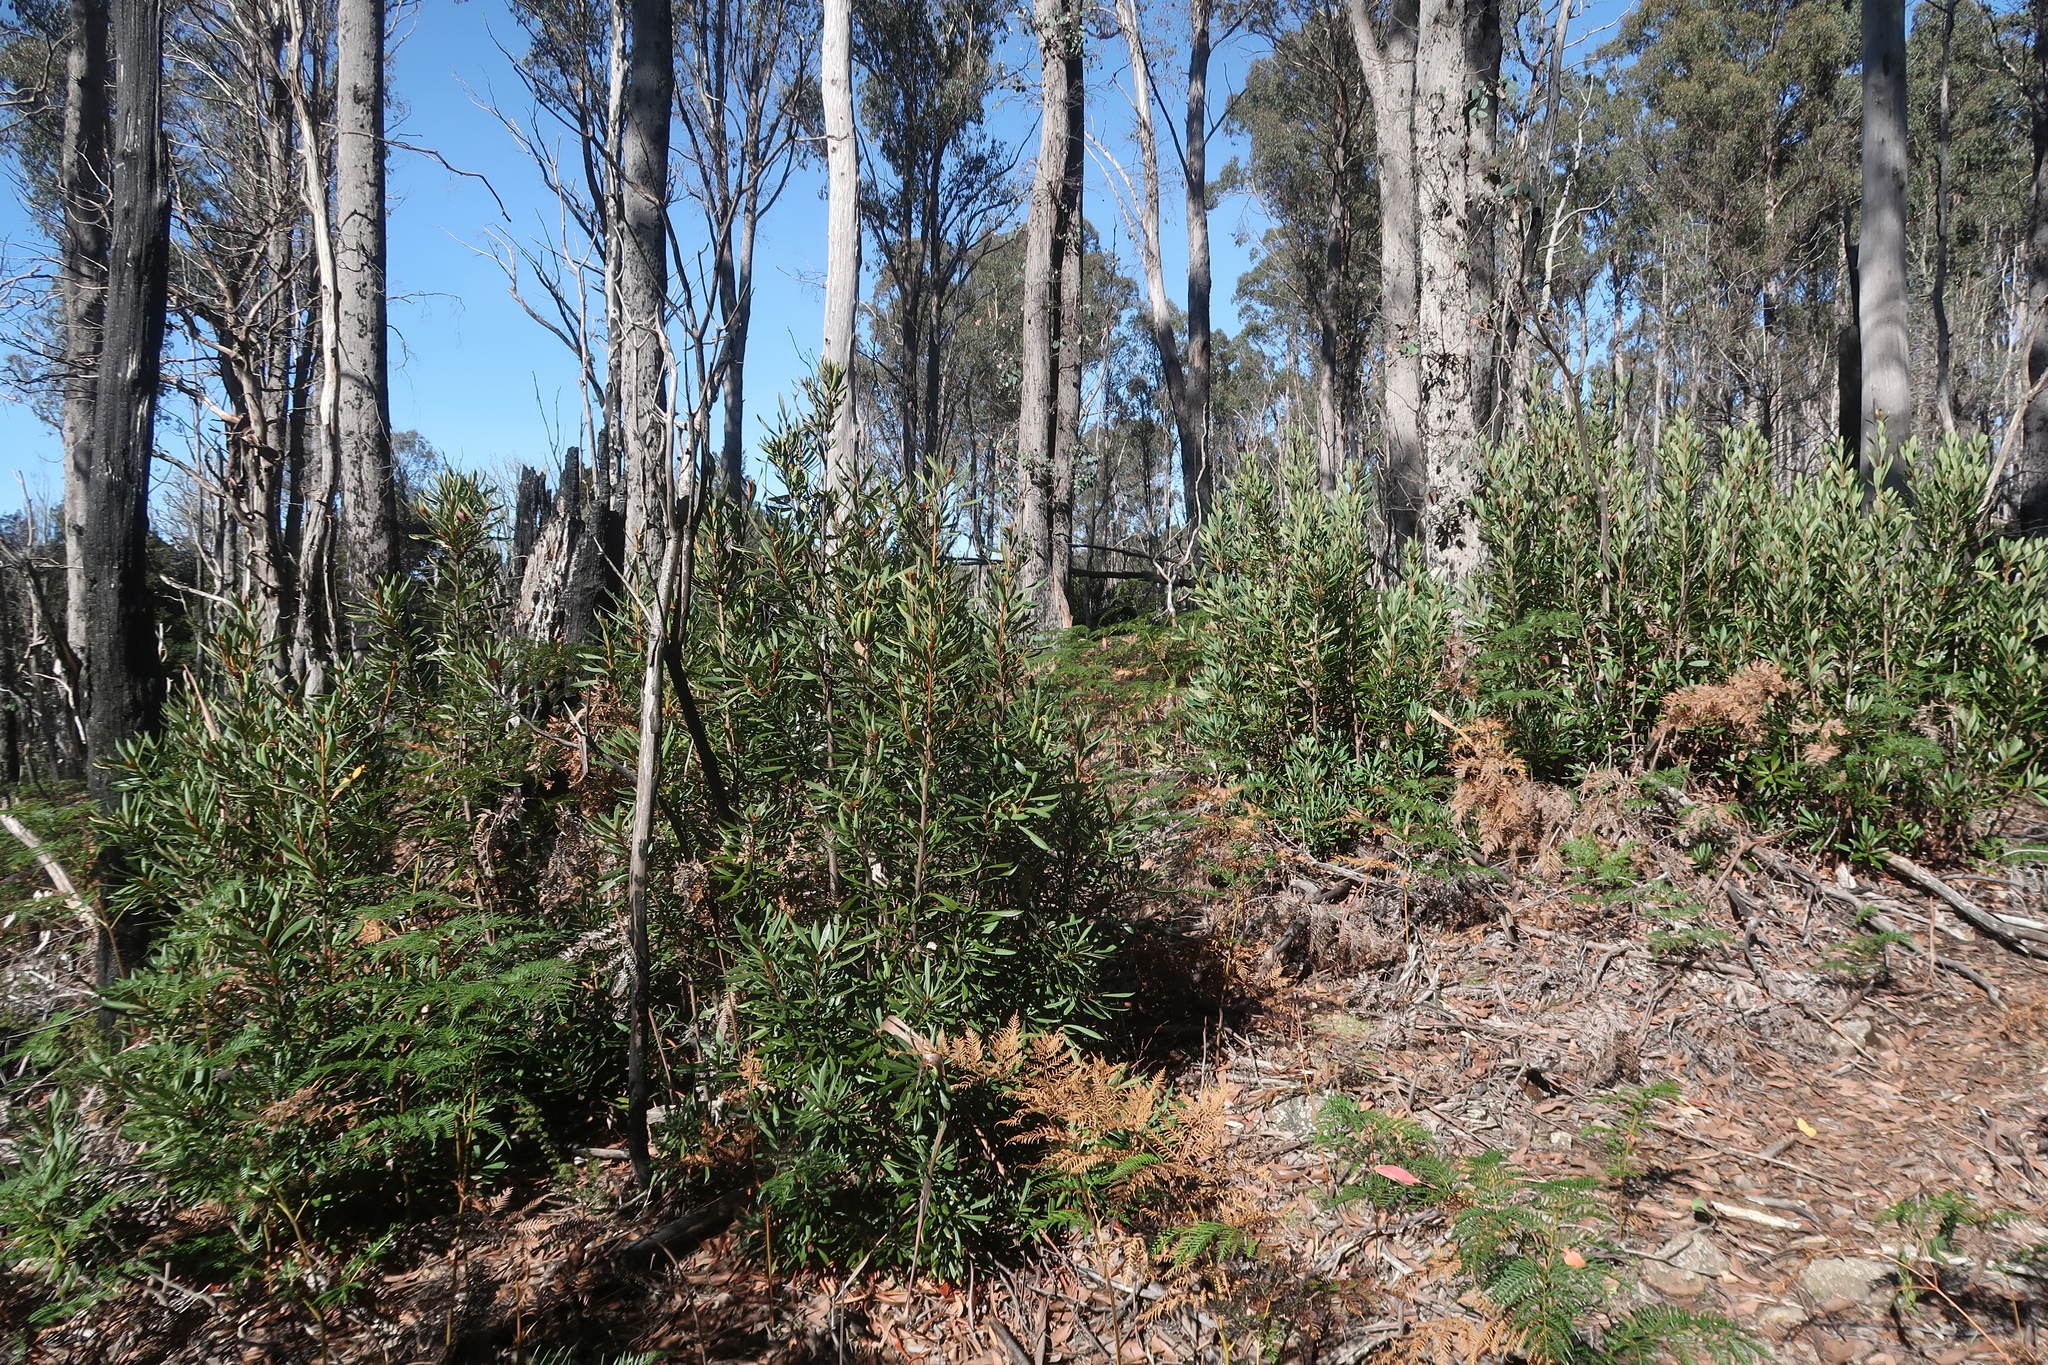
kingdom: Plantae
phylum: Tracheophyta
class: Magnoliopsida
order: Proteales
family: Proteaceae
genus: Telopea
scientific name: Telopea truncata
